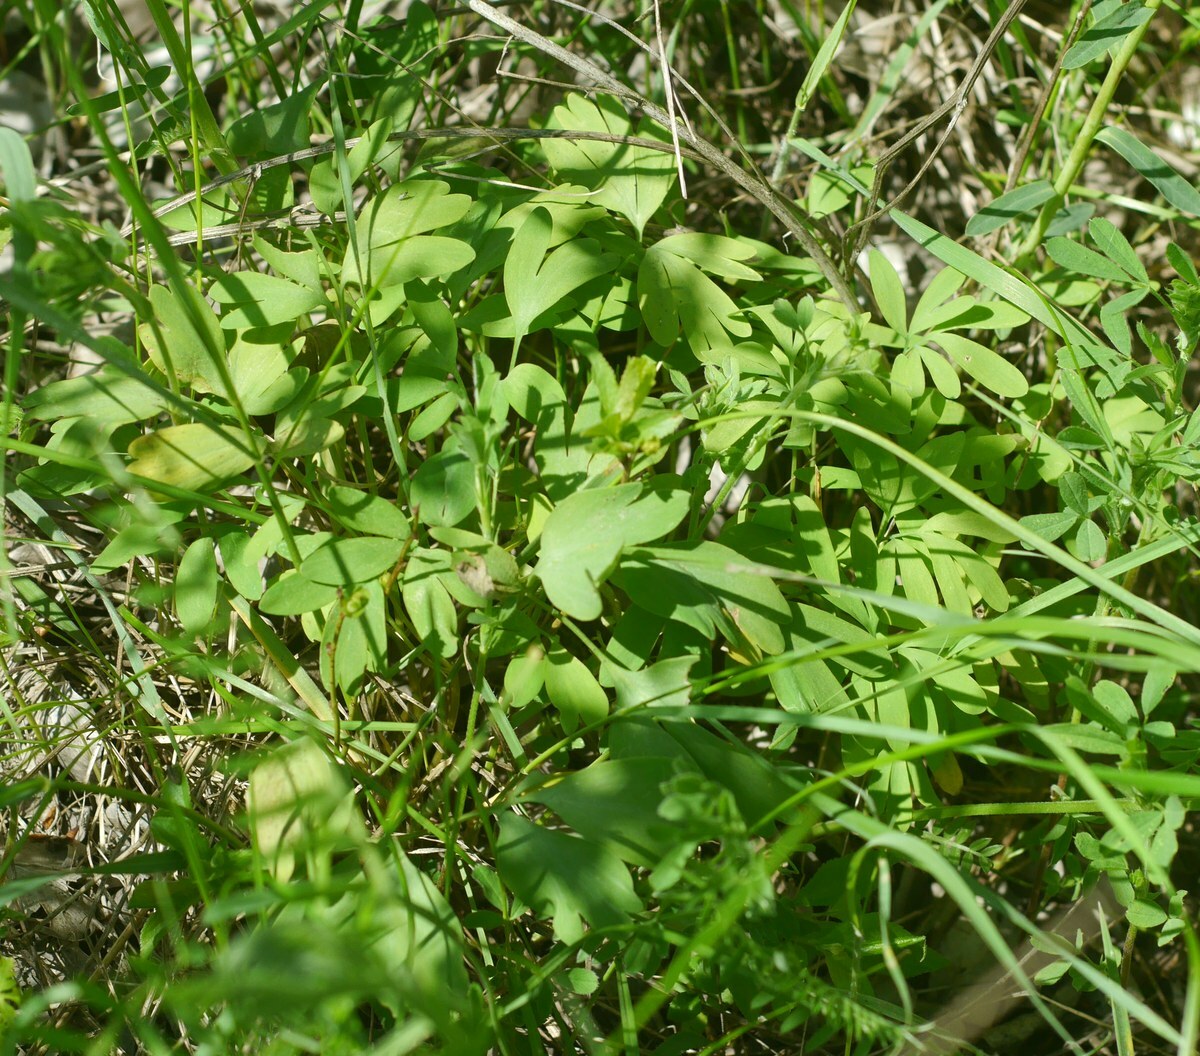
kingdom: Plantae
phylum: Tracheophyta
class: Magnoliopsida
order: Ranunculales
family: Papaveraceae
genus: Corydalis
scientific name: Corydalis solida
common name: Bird-in-a-bush
